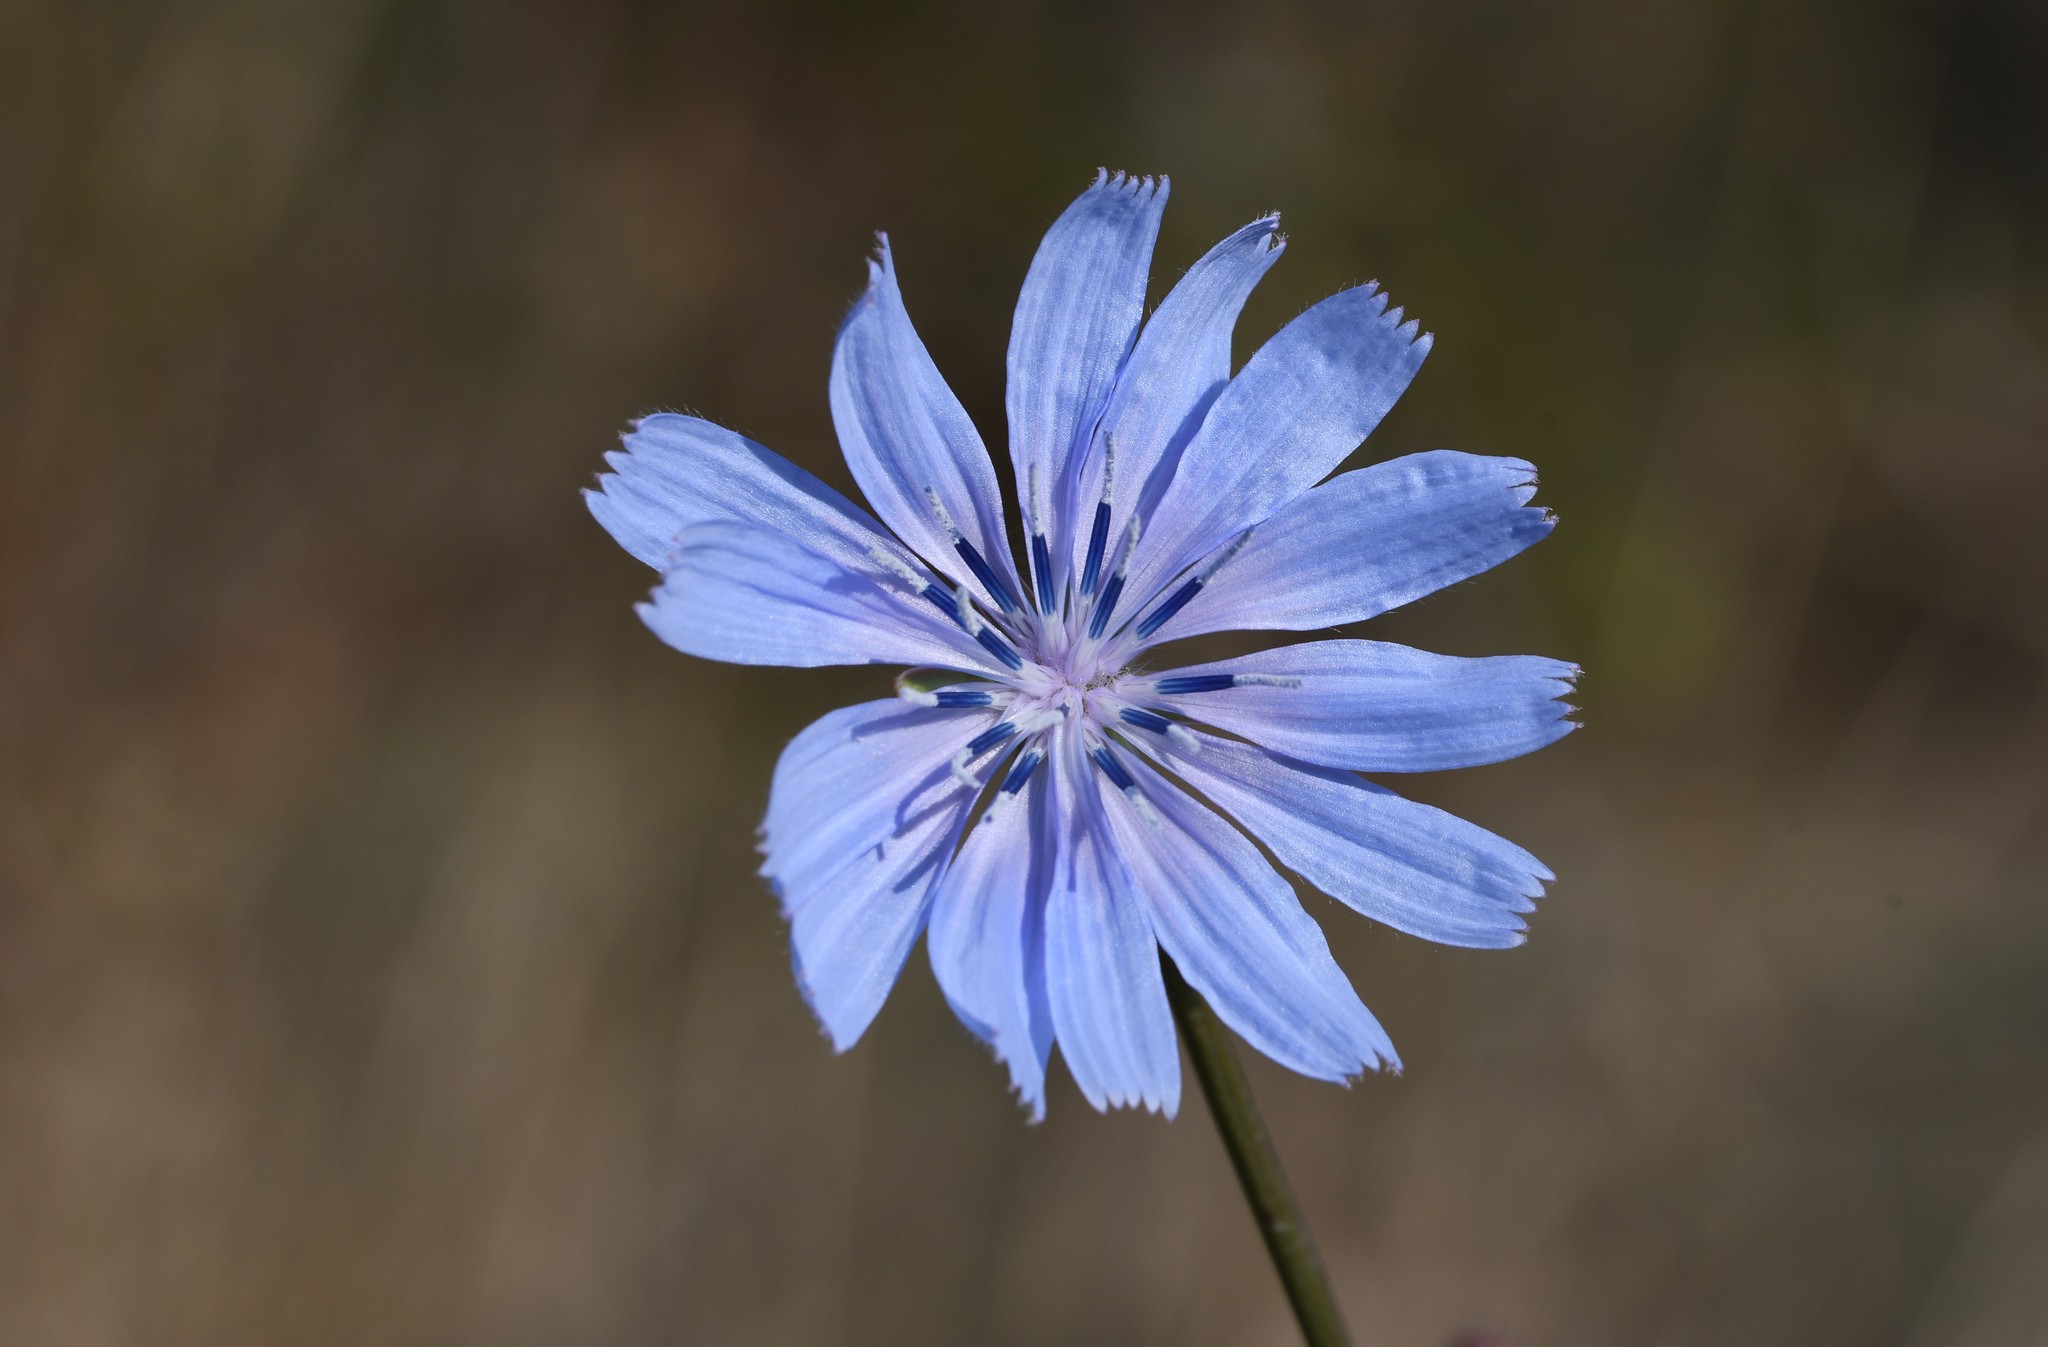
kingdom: Plantae
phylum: Tracheophyta
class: Magnoliopsida
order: Asterales
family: Asteraceae
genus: Cichorium
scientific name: Cichorium intybus
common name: Chicory
